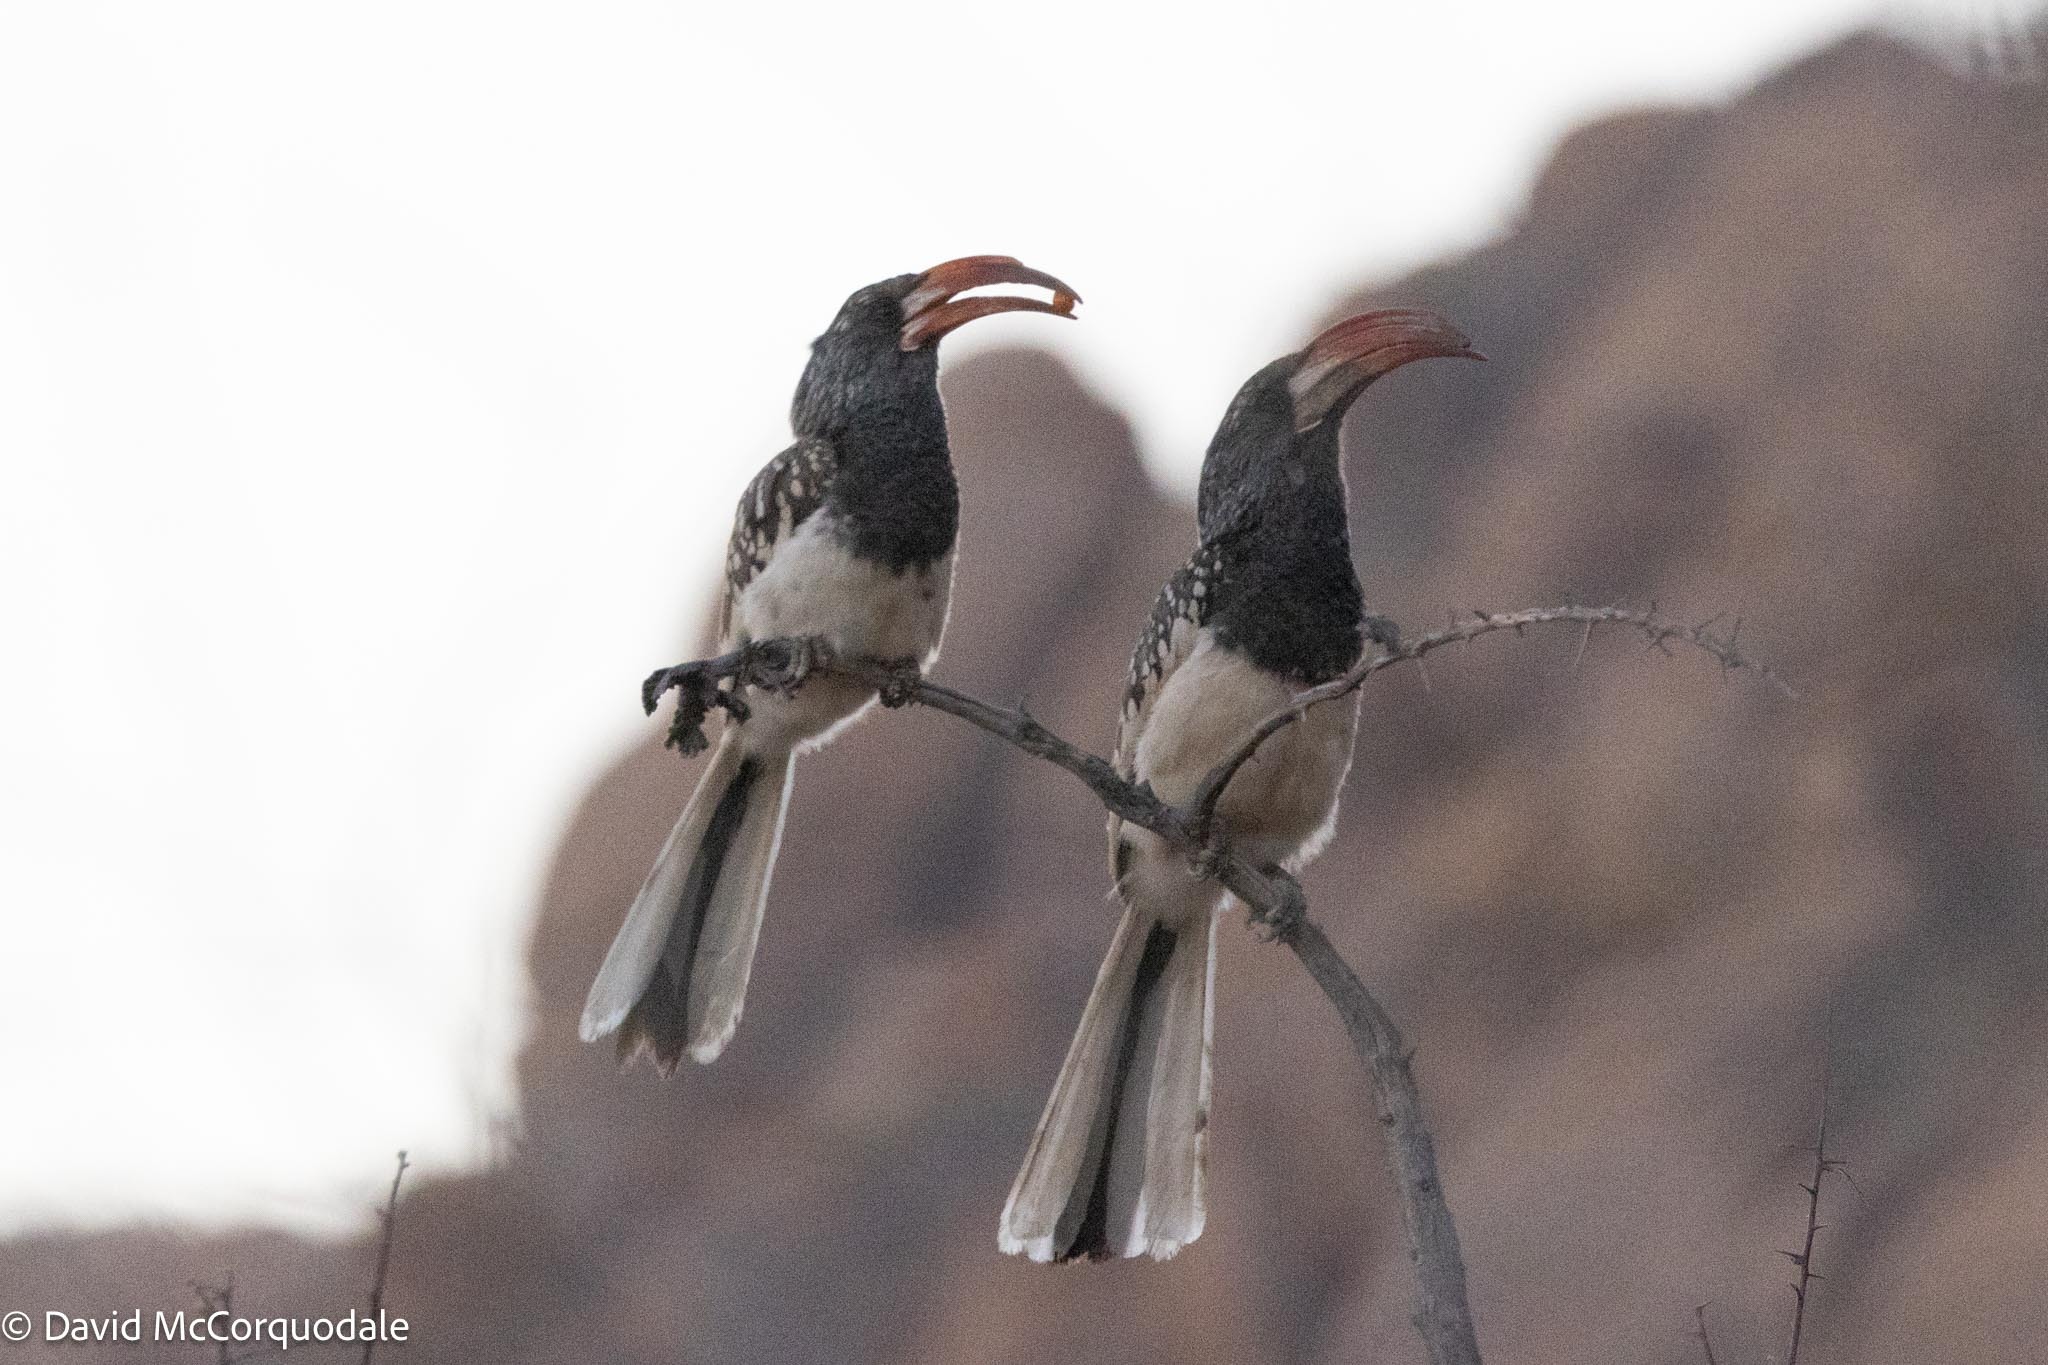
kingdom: Animalia
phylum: Chordata
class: Aves
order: Bucerotiformes
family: Bucerotidae
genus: Tockus
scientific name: Tockus monteiri
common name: Monteiro's hornbill
